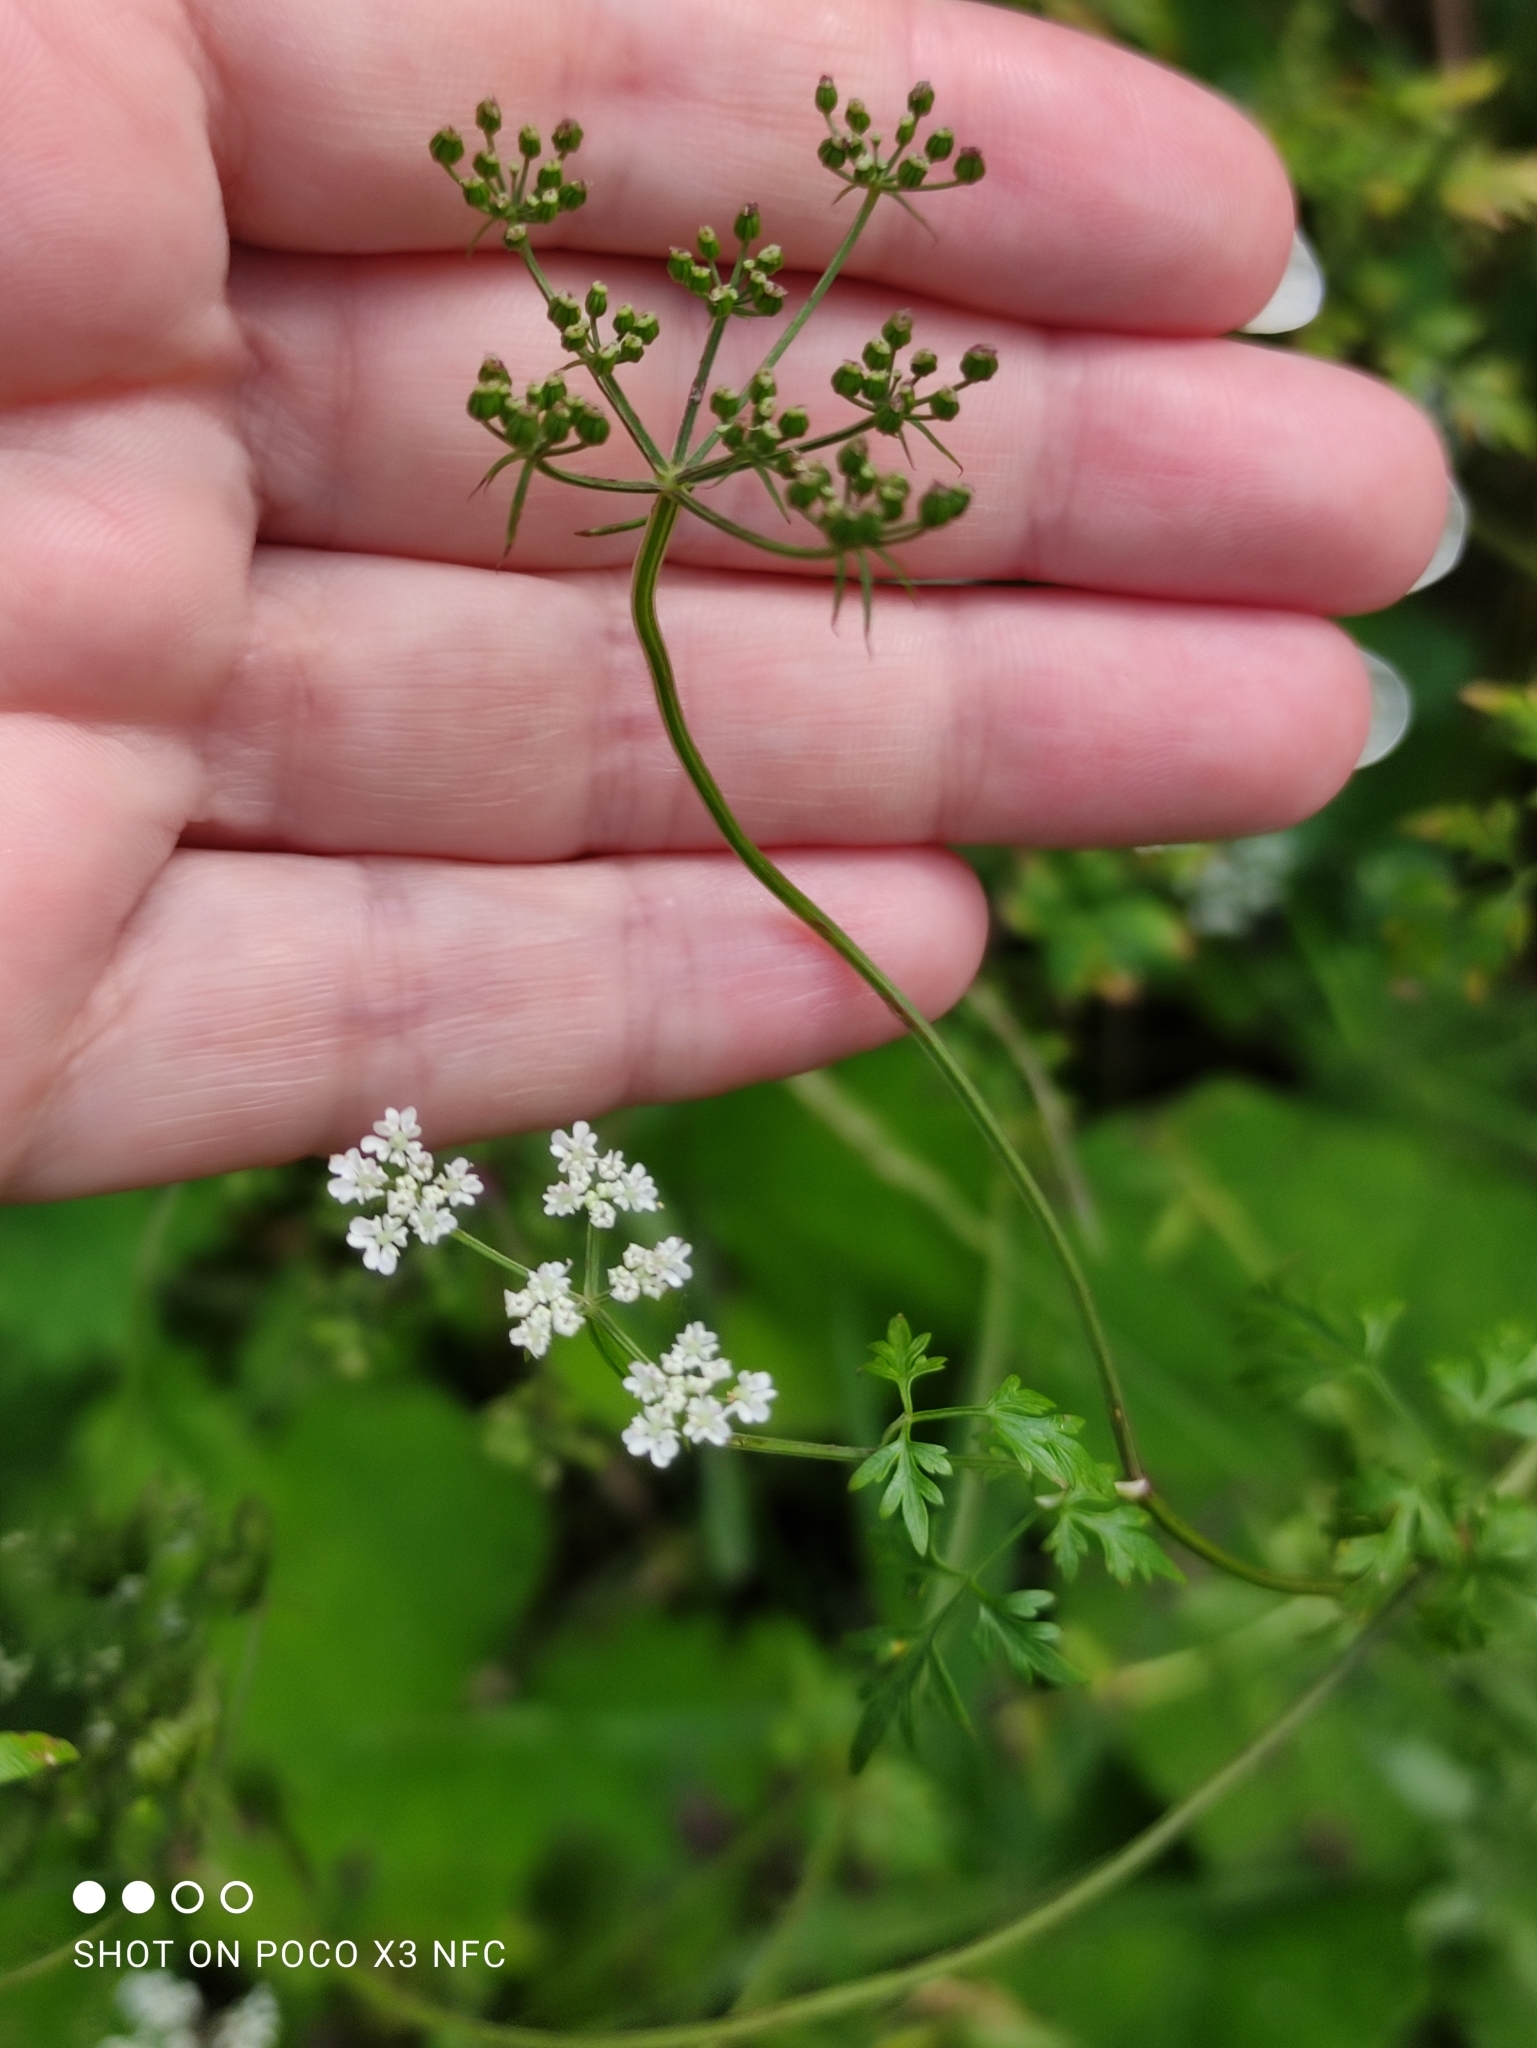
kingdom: Plantae
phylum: Tracheophyta
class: Magnoliopsida
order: Apiales
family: Apiaceae
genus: Aethusa
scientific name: Aethusa cynapium
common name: Fool's parsley
